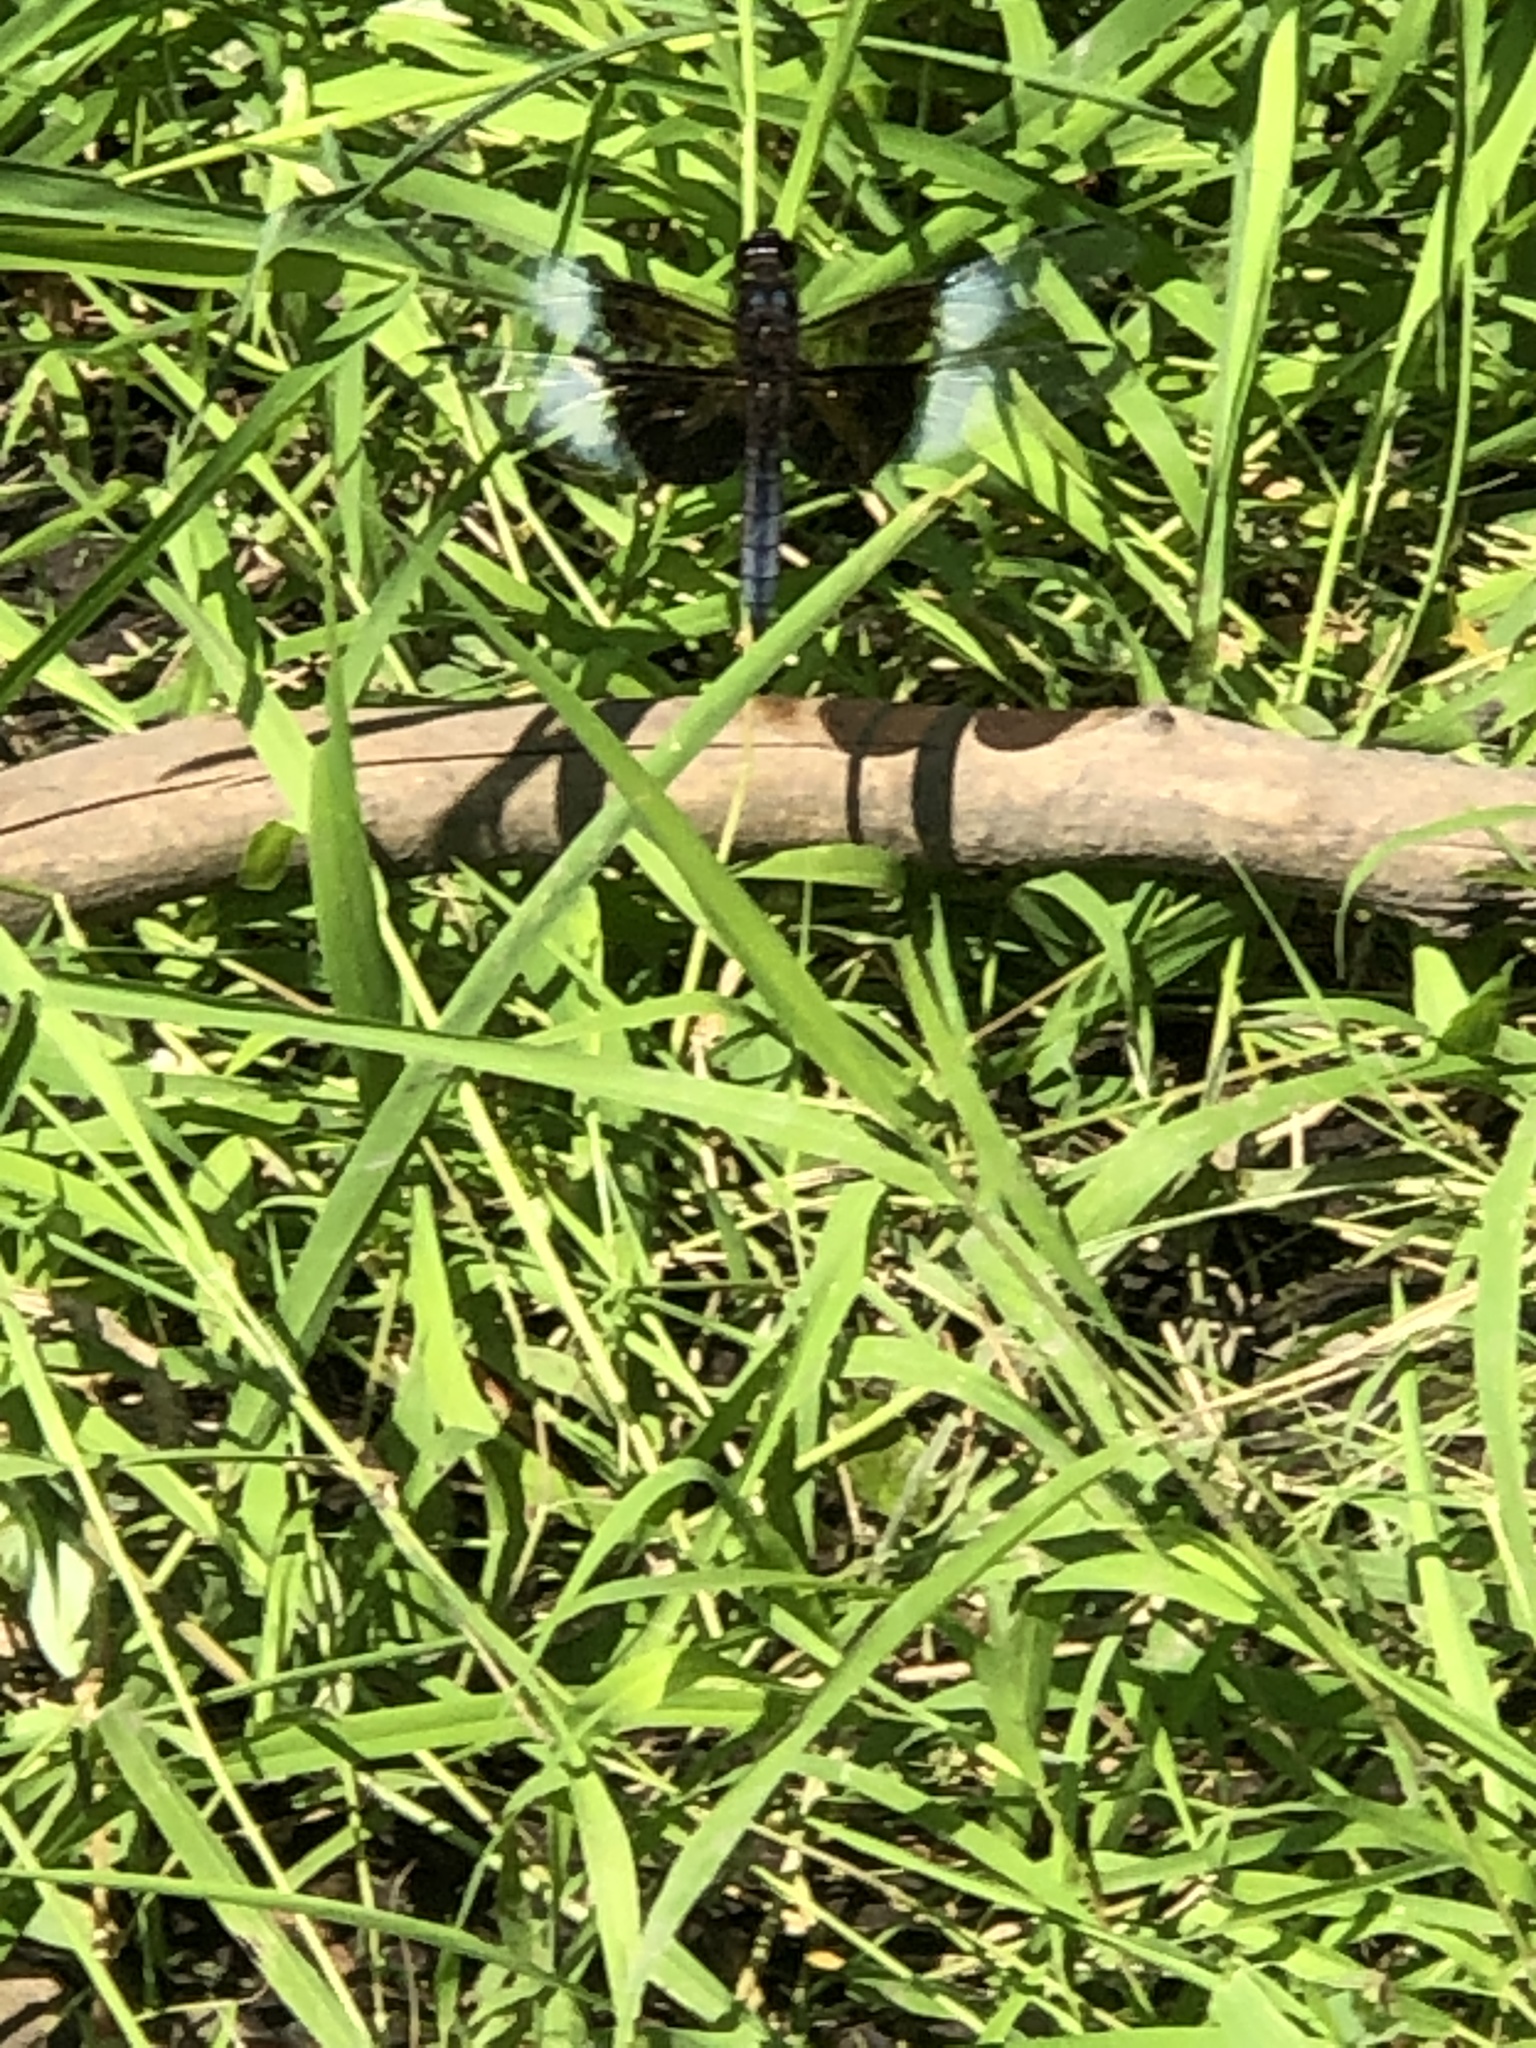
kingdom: Animalia
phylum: Arthropoda
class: Insecta
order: Odonata
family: Libellulidae
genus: Libellula
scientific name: Libellula luctuosa
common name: Widow skimmer
